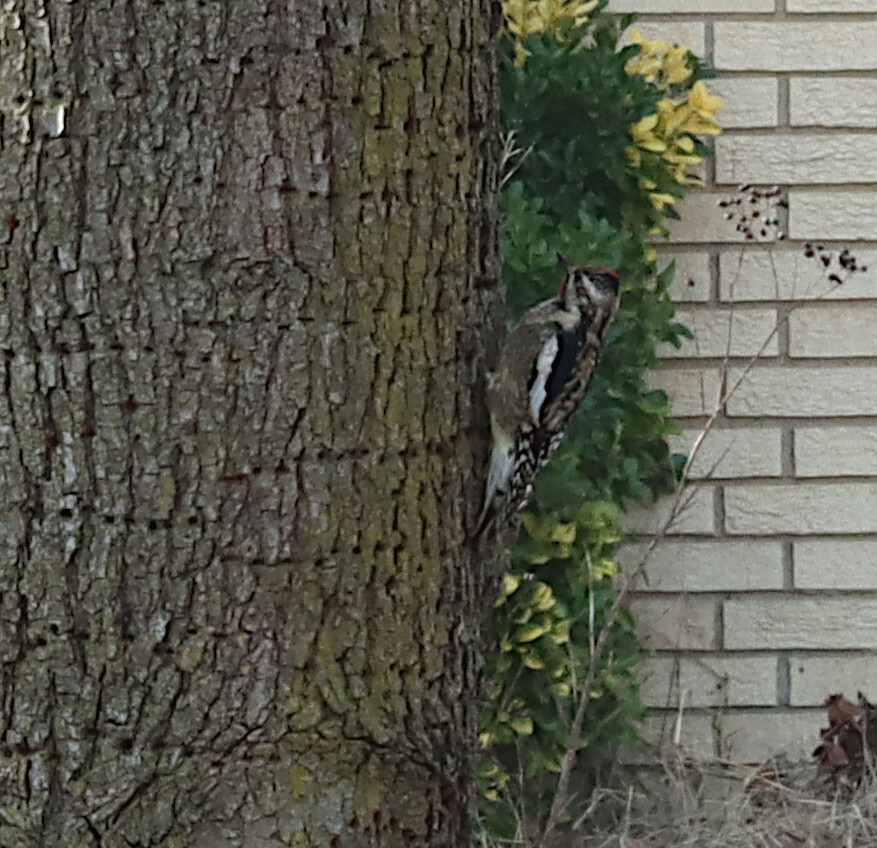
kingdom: Animalia
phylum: Chordata
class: Aves
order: Piciformes
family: Picidae
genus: Sphyrapicus
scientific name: Sphyrapicus varius
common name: Yellow-bellied sapsucker
